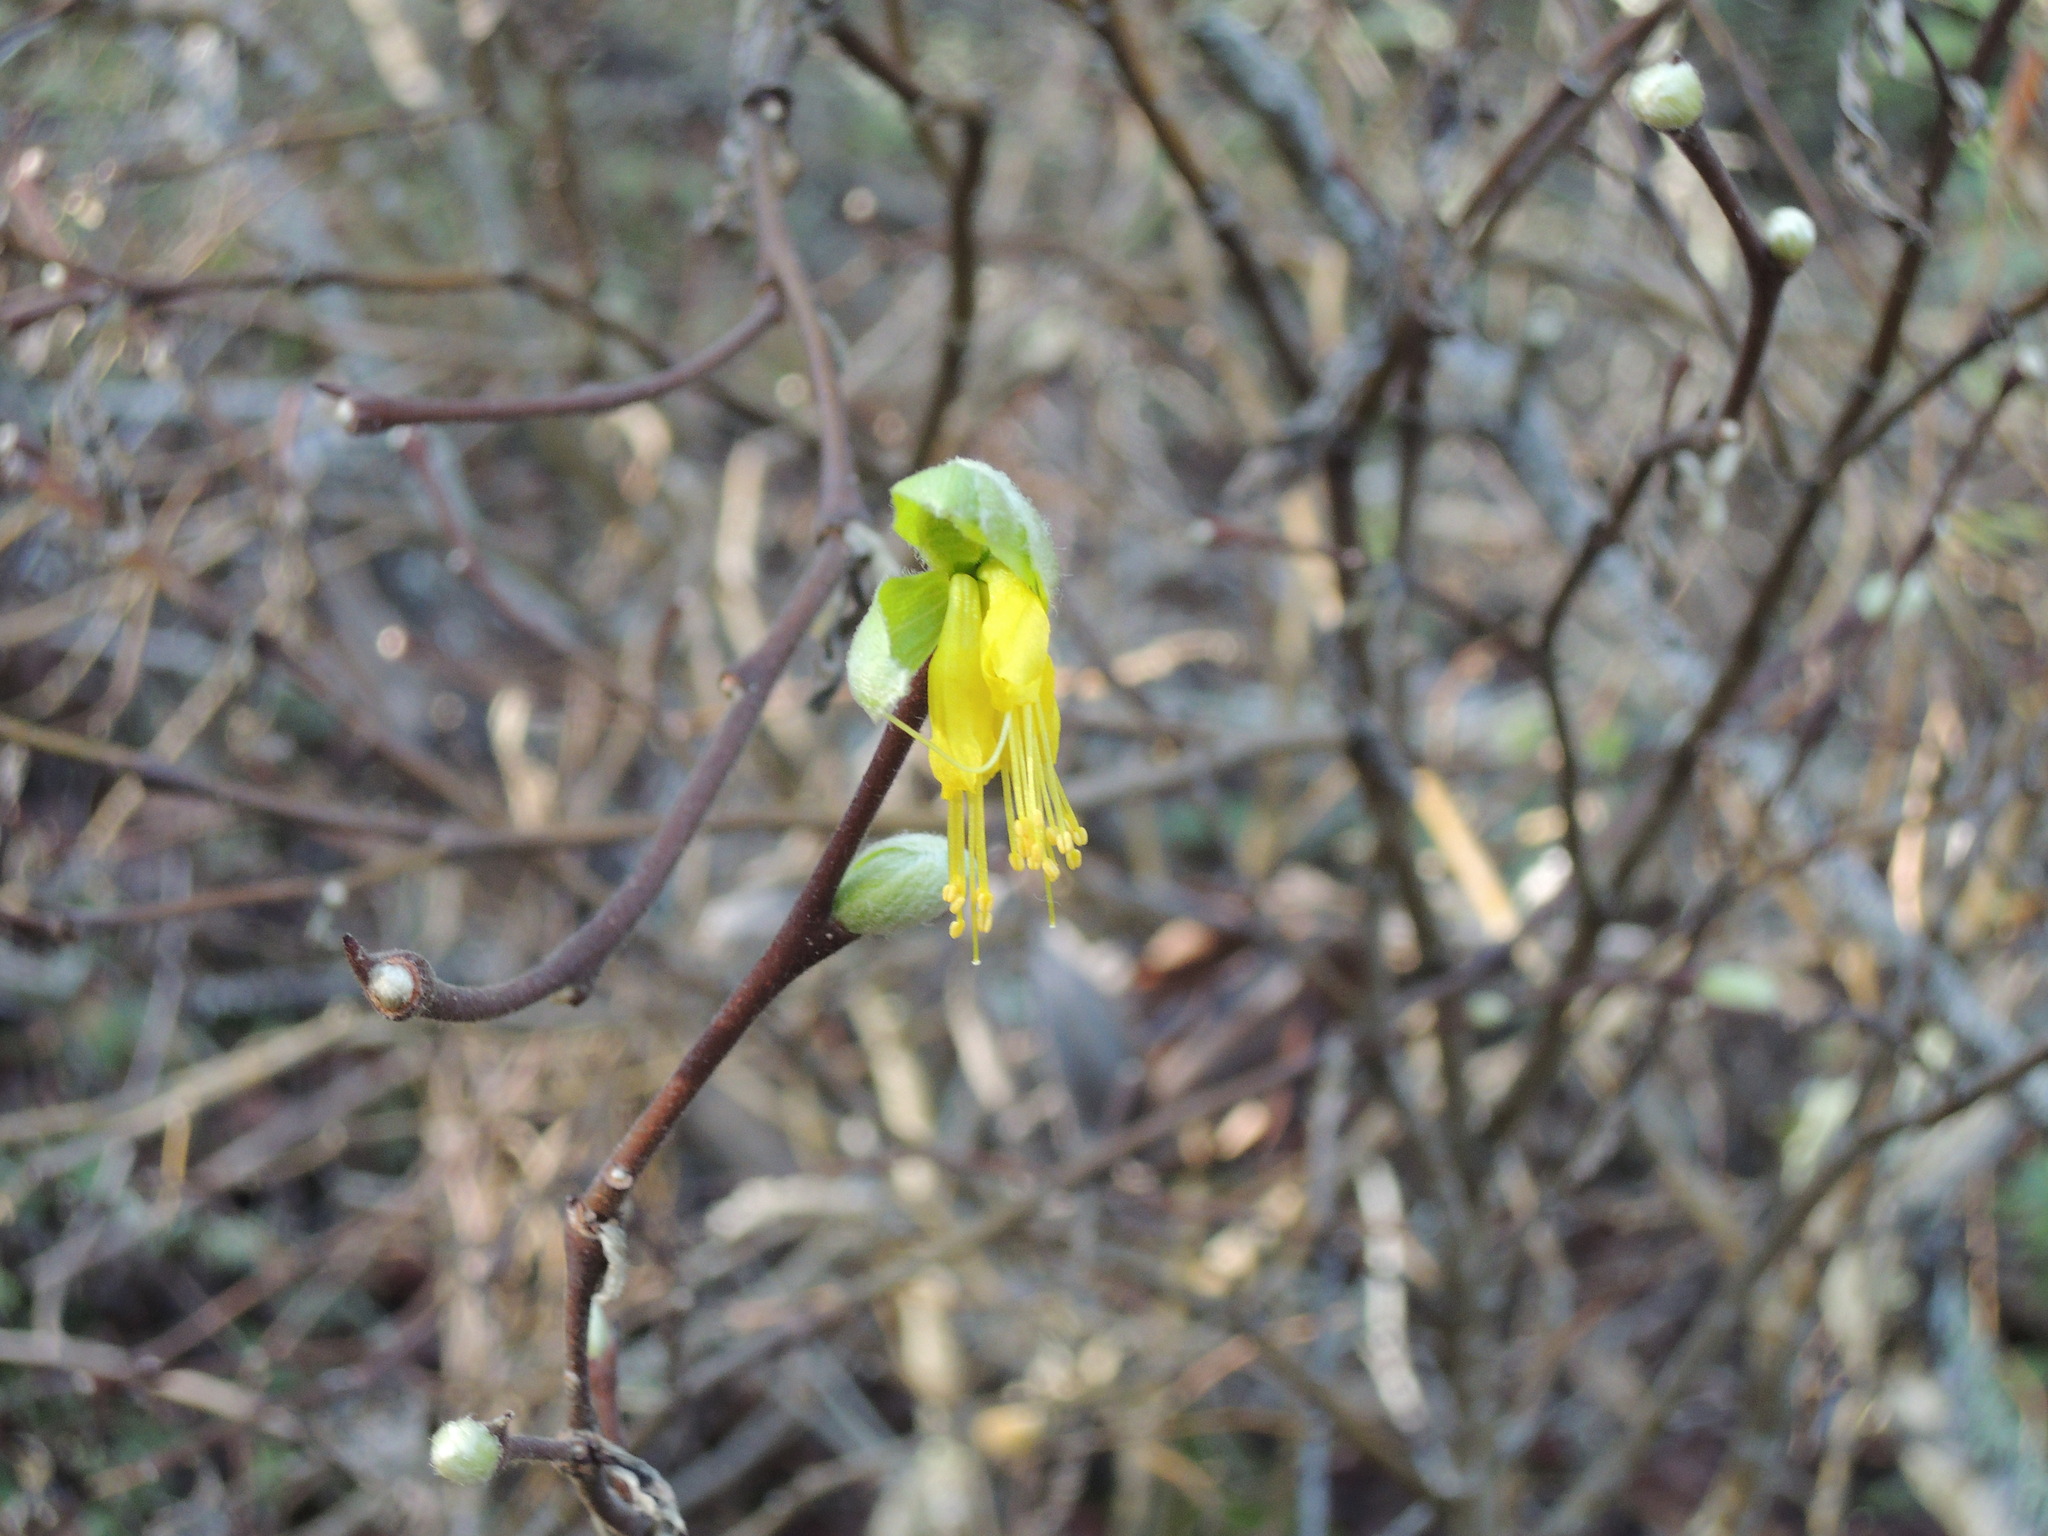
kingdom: Plantae
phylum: Tracheophyta
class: Magnoliopsida
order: Malvales
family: Thymelaeaceae
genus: Dirca
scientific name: Dirca occidentalis
